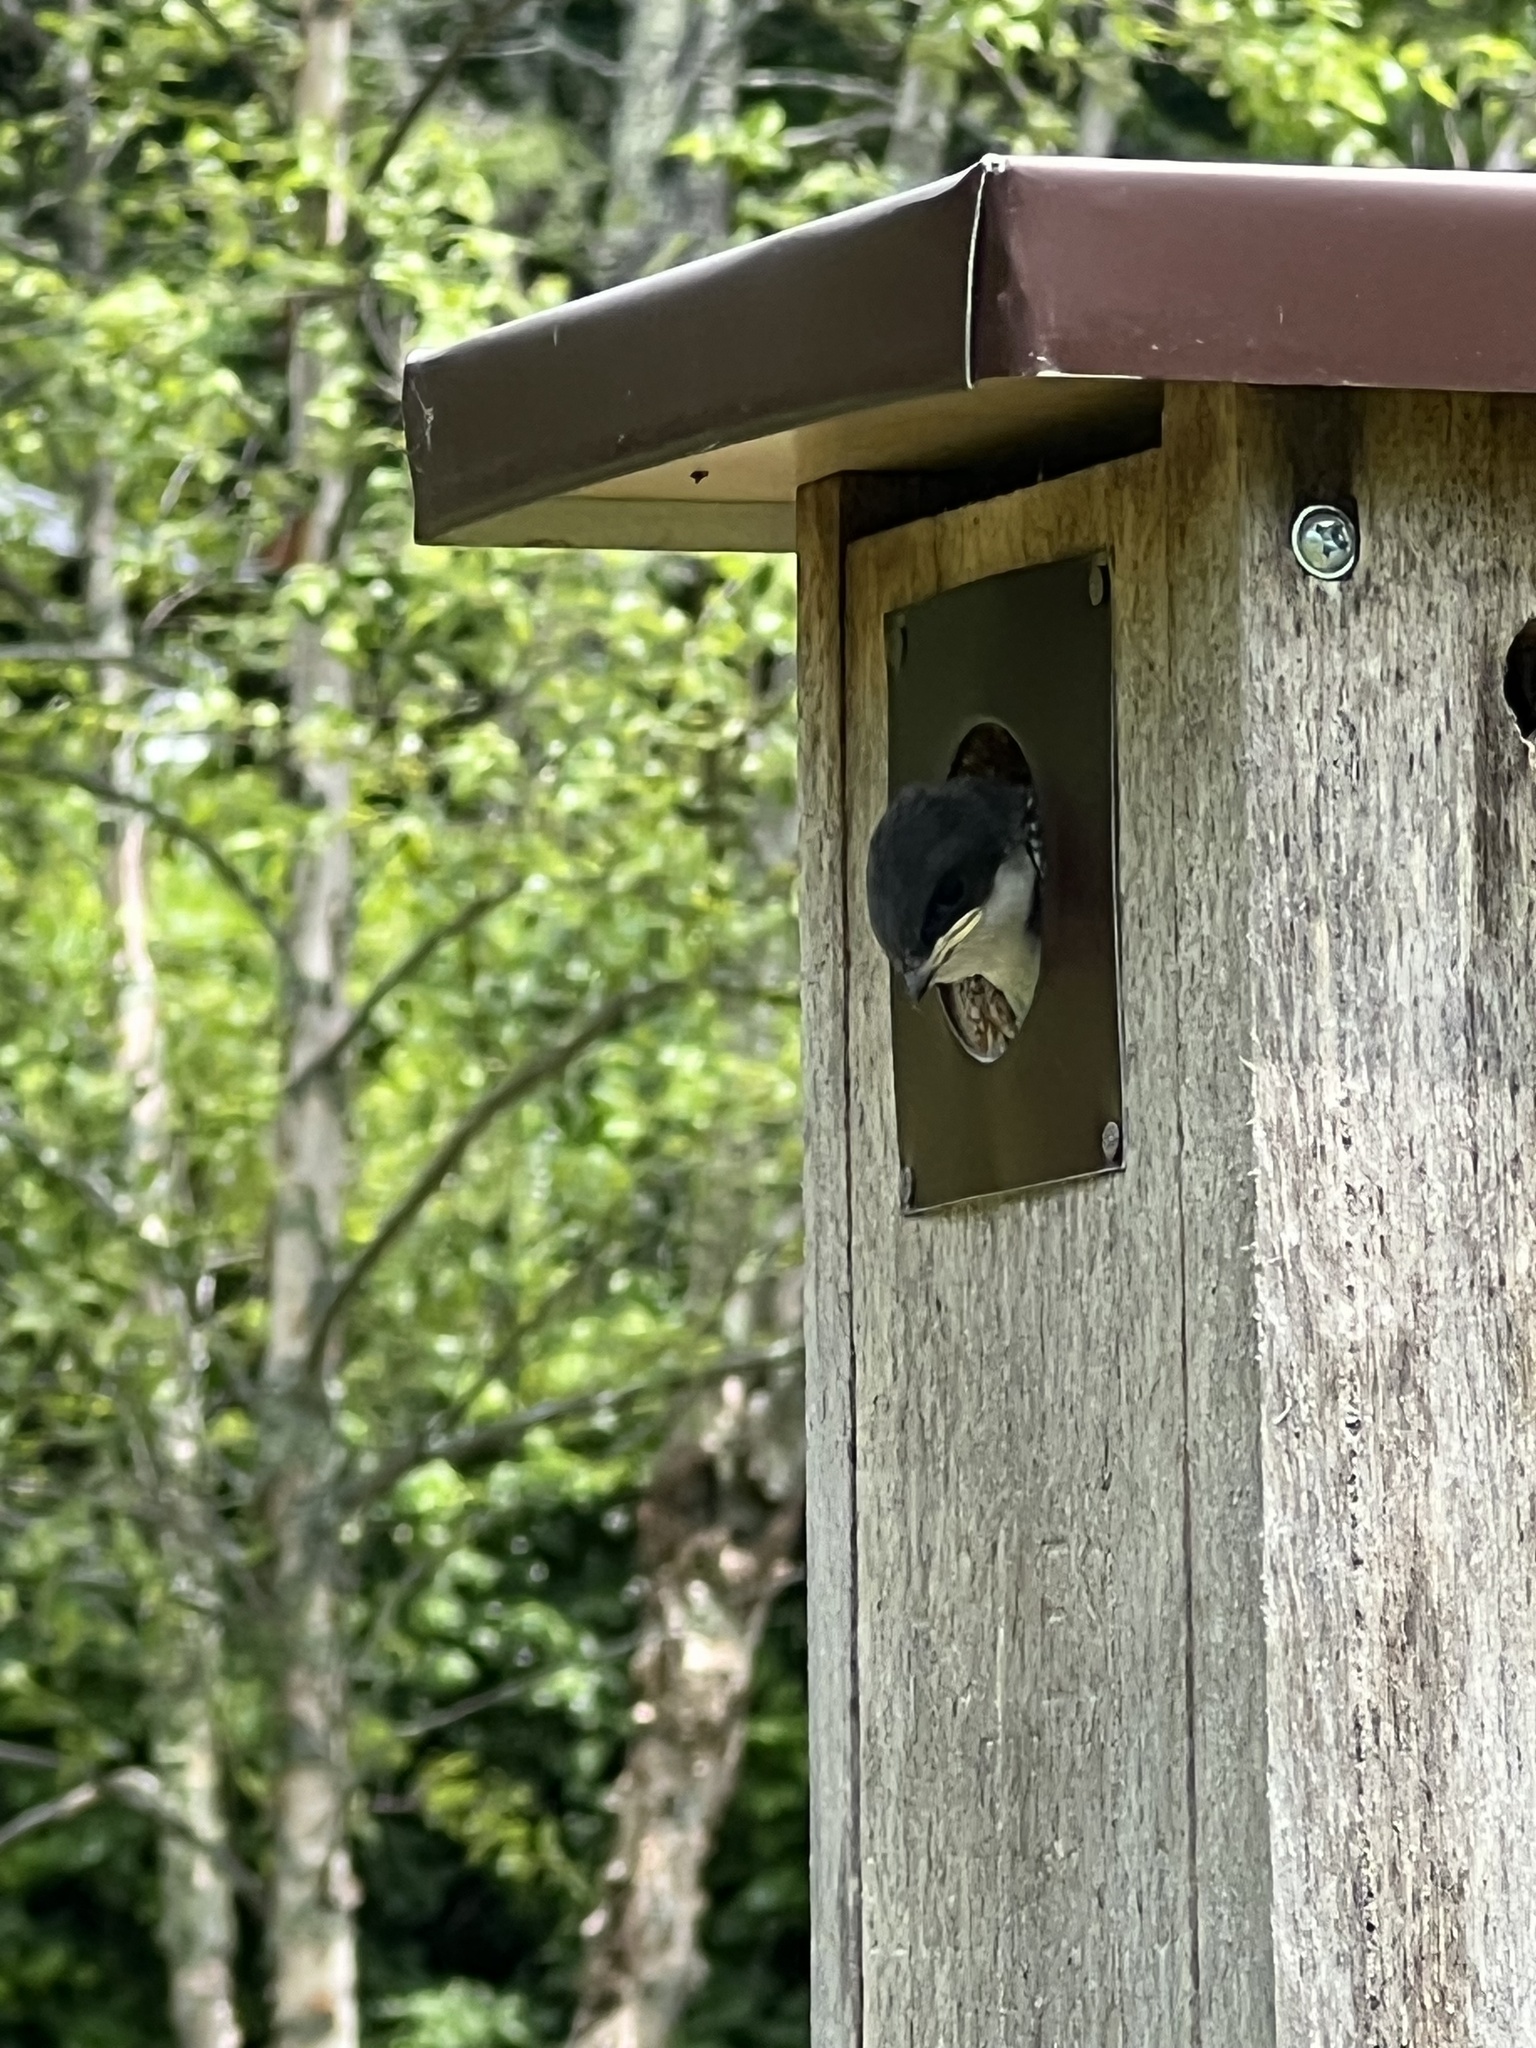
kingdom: Animalia
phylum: Chordata
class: Aves
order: Passeriformes
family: Hirundinidae
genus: Tachycineta
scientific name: Tachycineta bicolor
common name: Tree swallow
